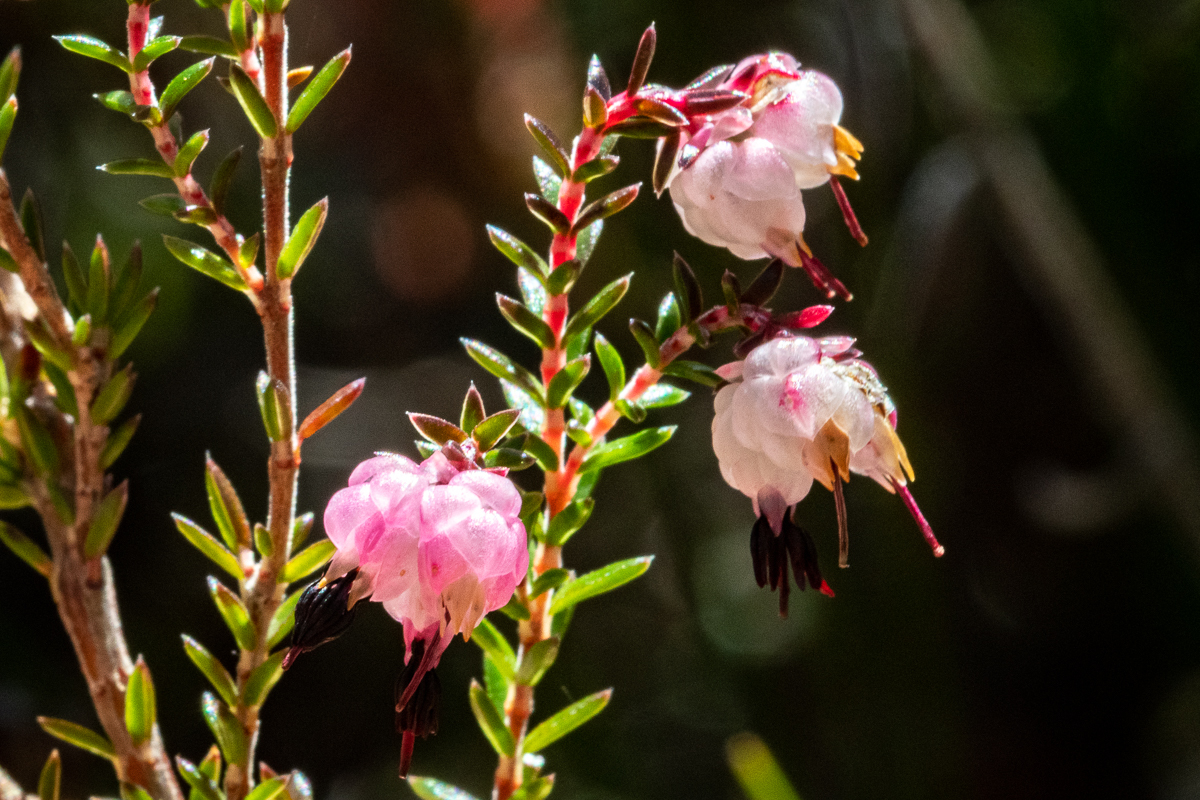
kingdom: Plantae
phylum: Tracheophyta
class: Magnoliopsida
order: Ericales
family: Ericaceae
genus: Erica
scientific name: Erica spumosa
